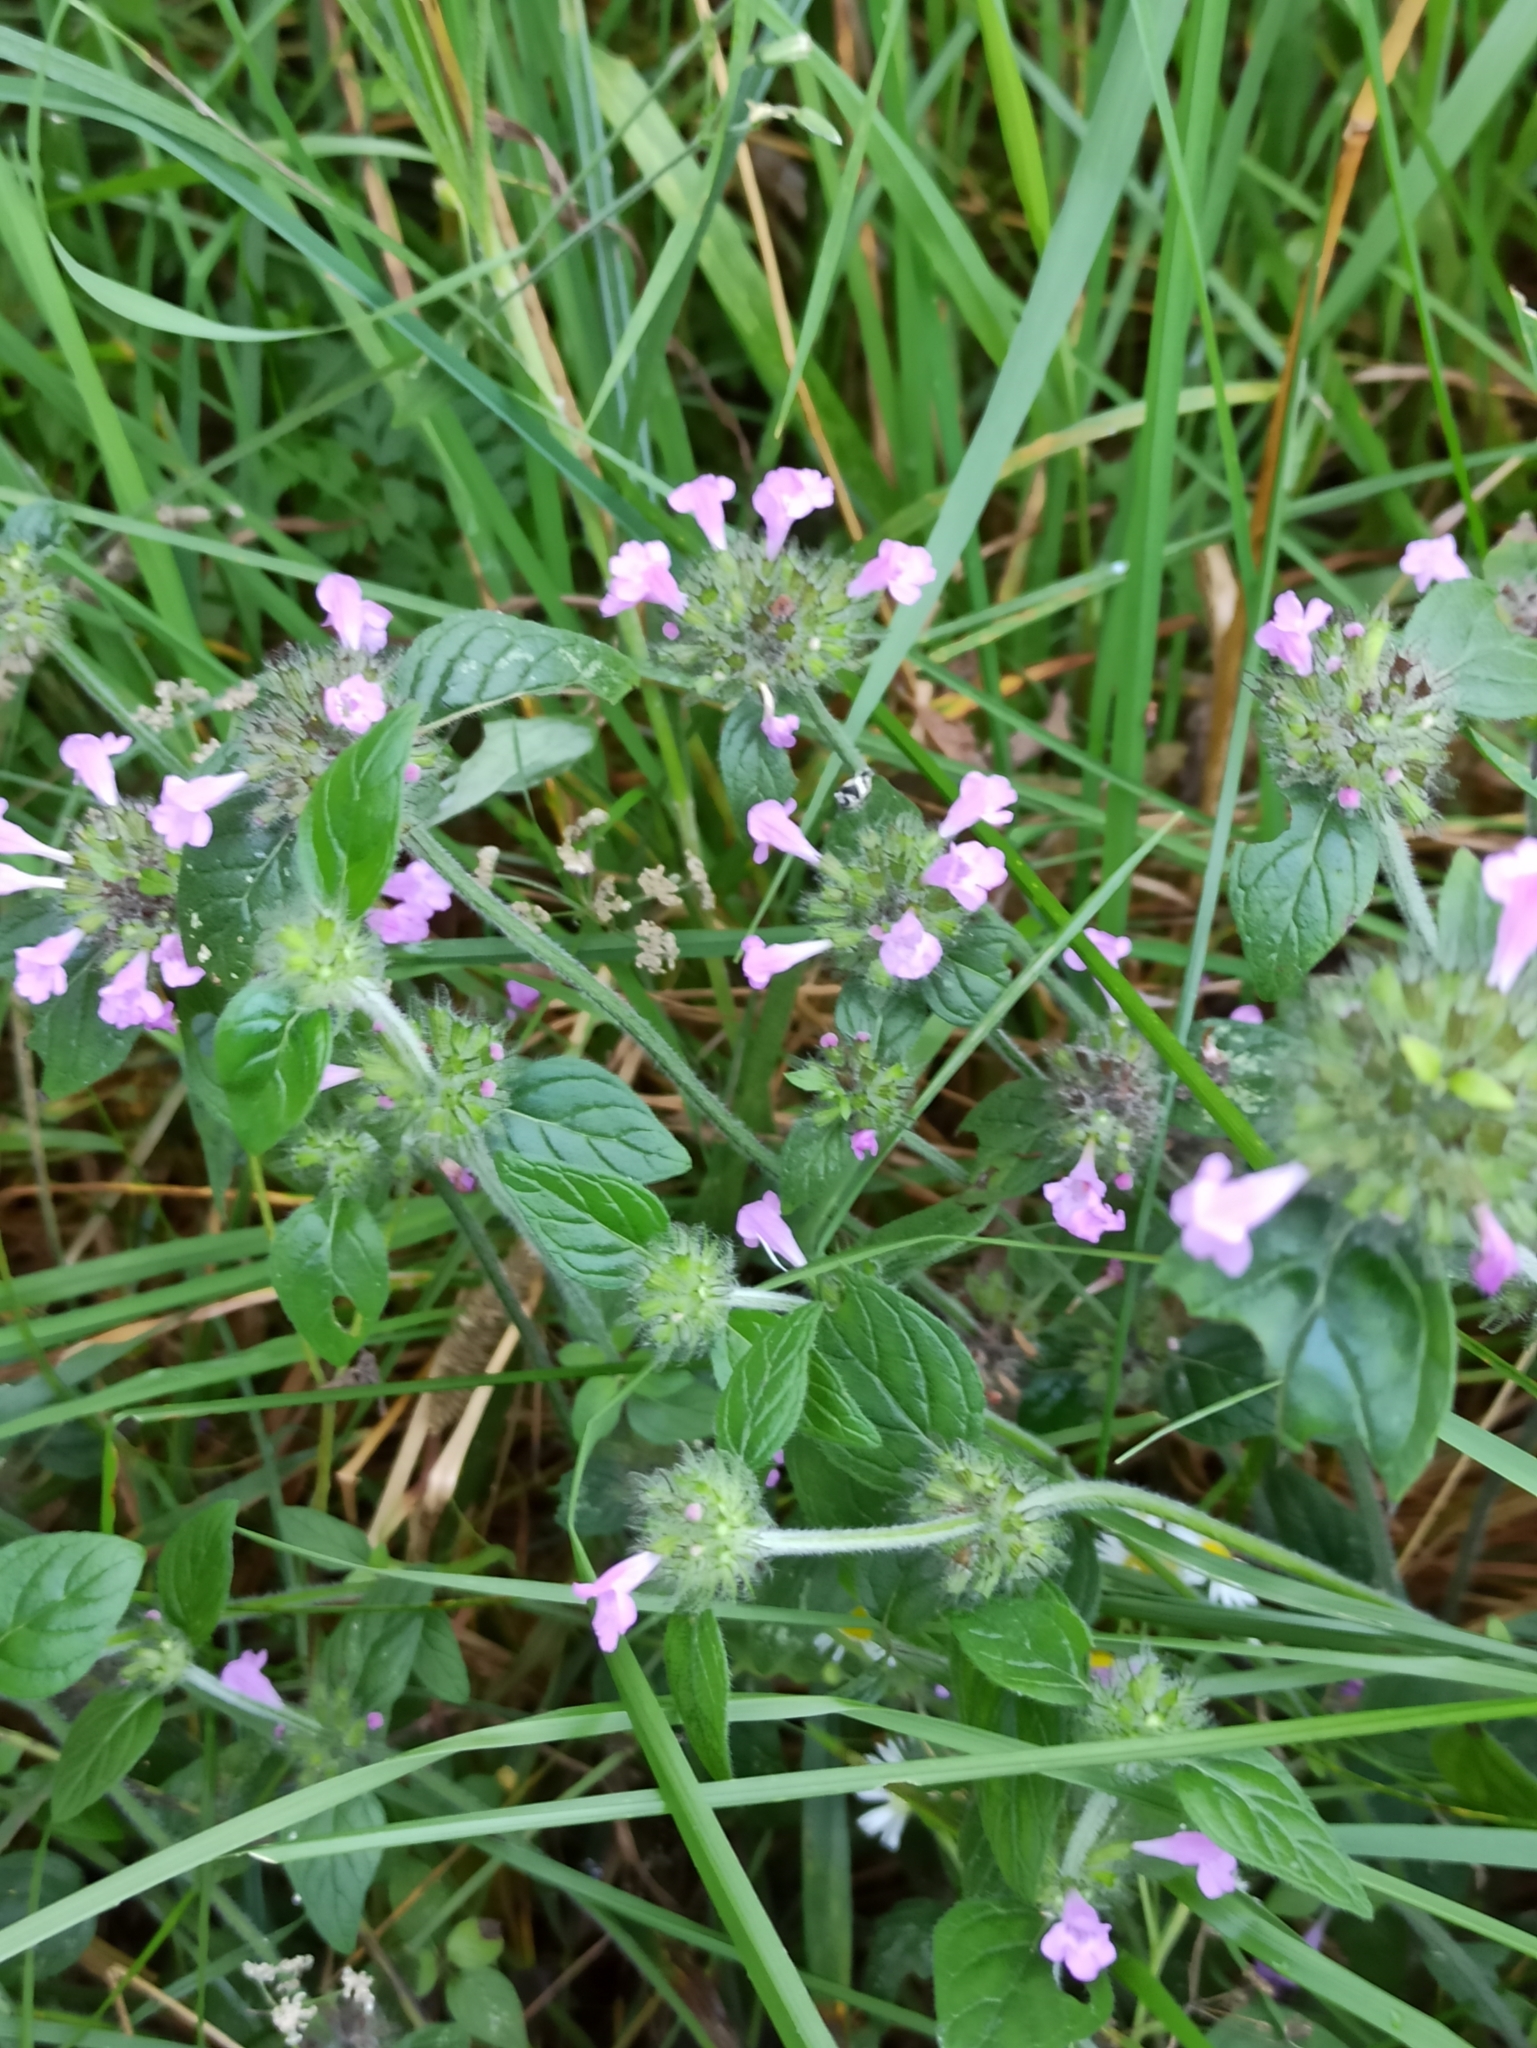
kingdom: Plantae
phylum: Tracheophyta
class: Magnoliopsida
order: Lamiales
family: Lamiaceae
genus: Clinopodium
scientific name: Clinopodium vulgare
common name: Wild basil
